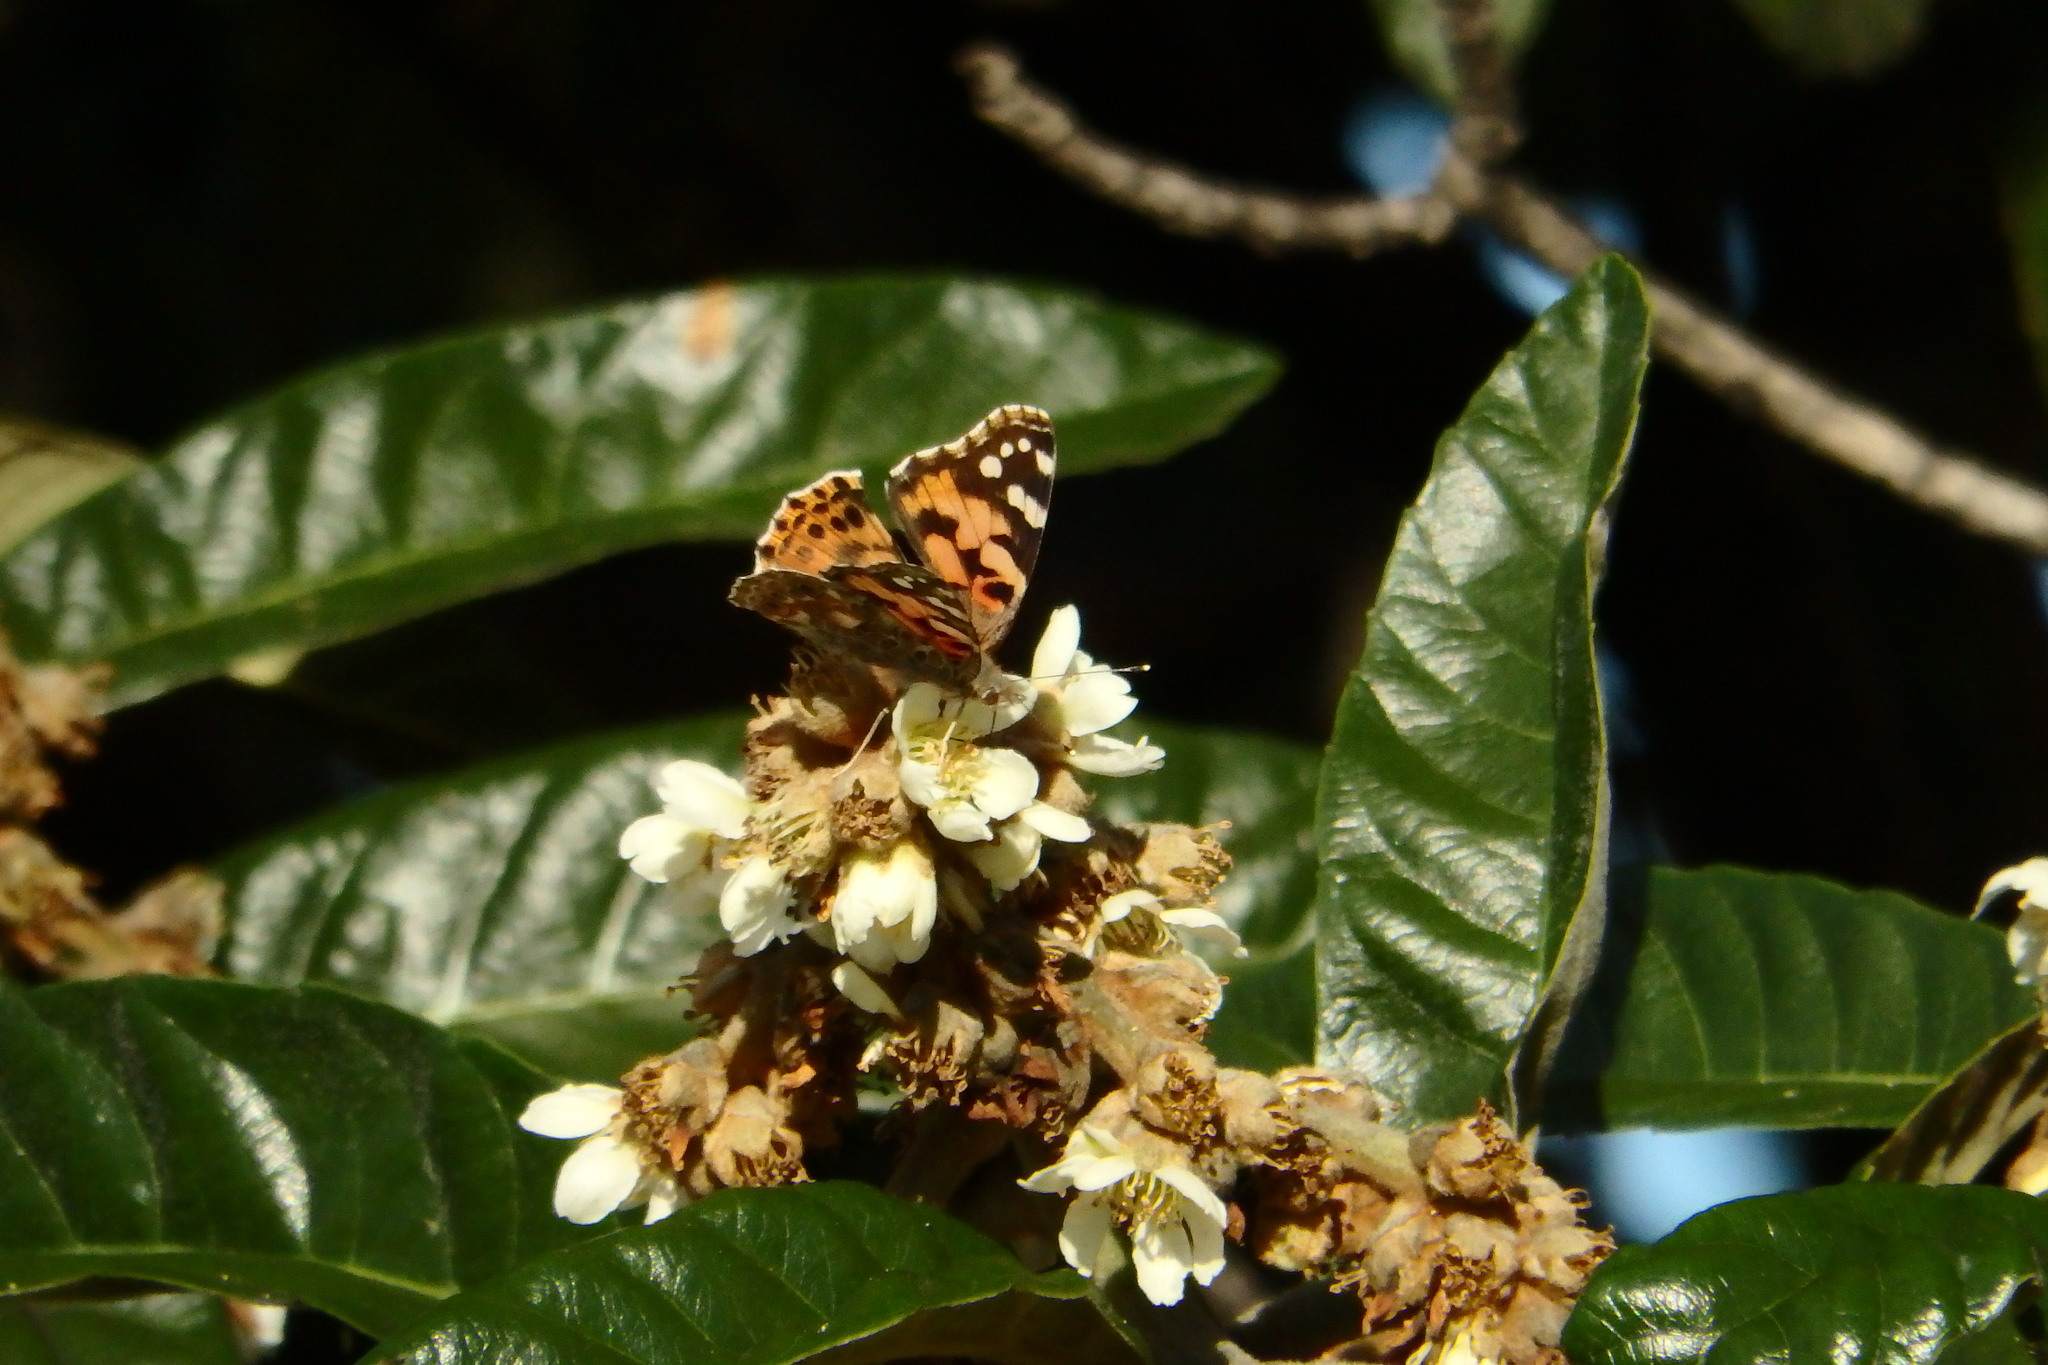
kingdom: Animalia
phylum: Arthropoda
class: Insecta
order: Lepidoptera
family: Nymphalidae
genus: Vanessa
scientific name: Vanessa cardui
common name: Painted lady
